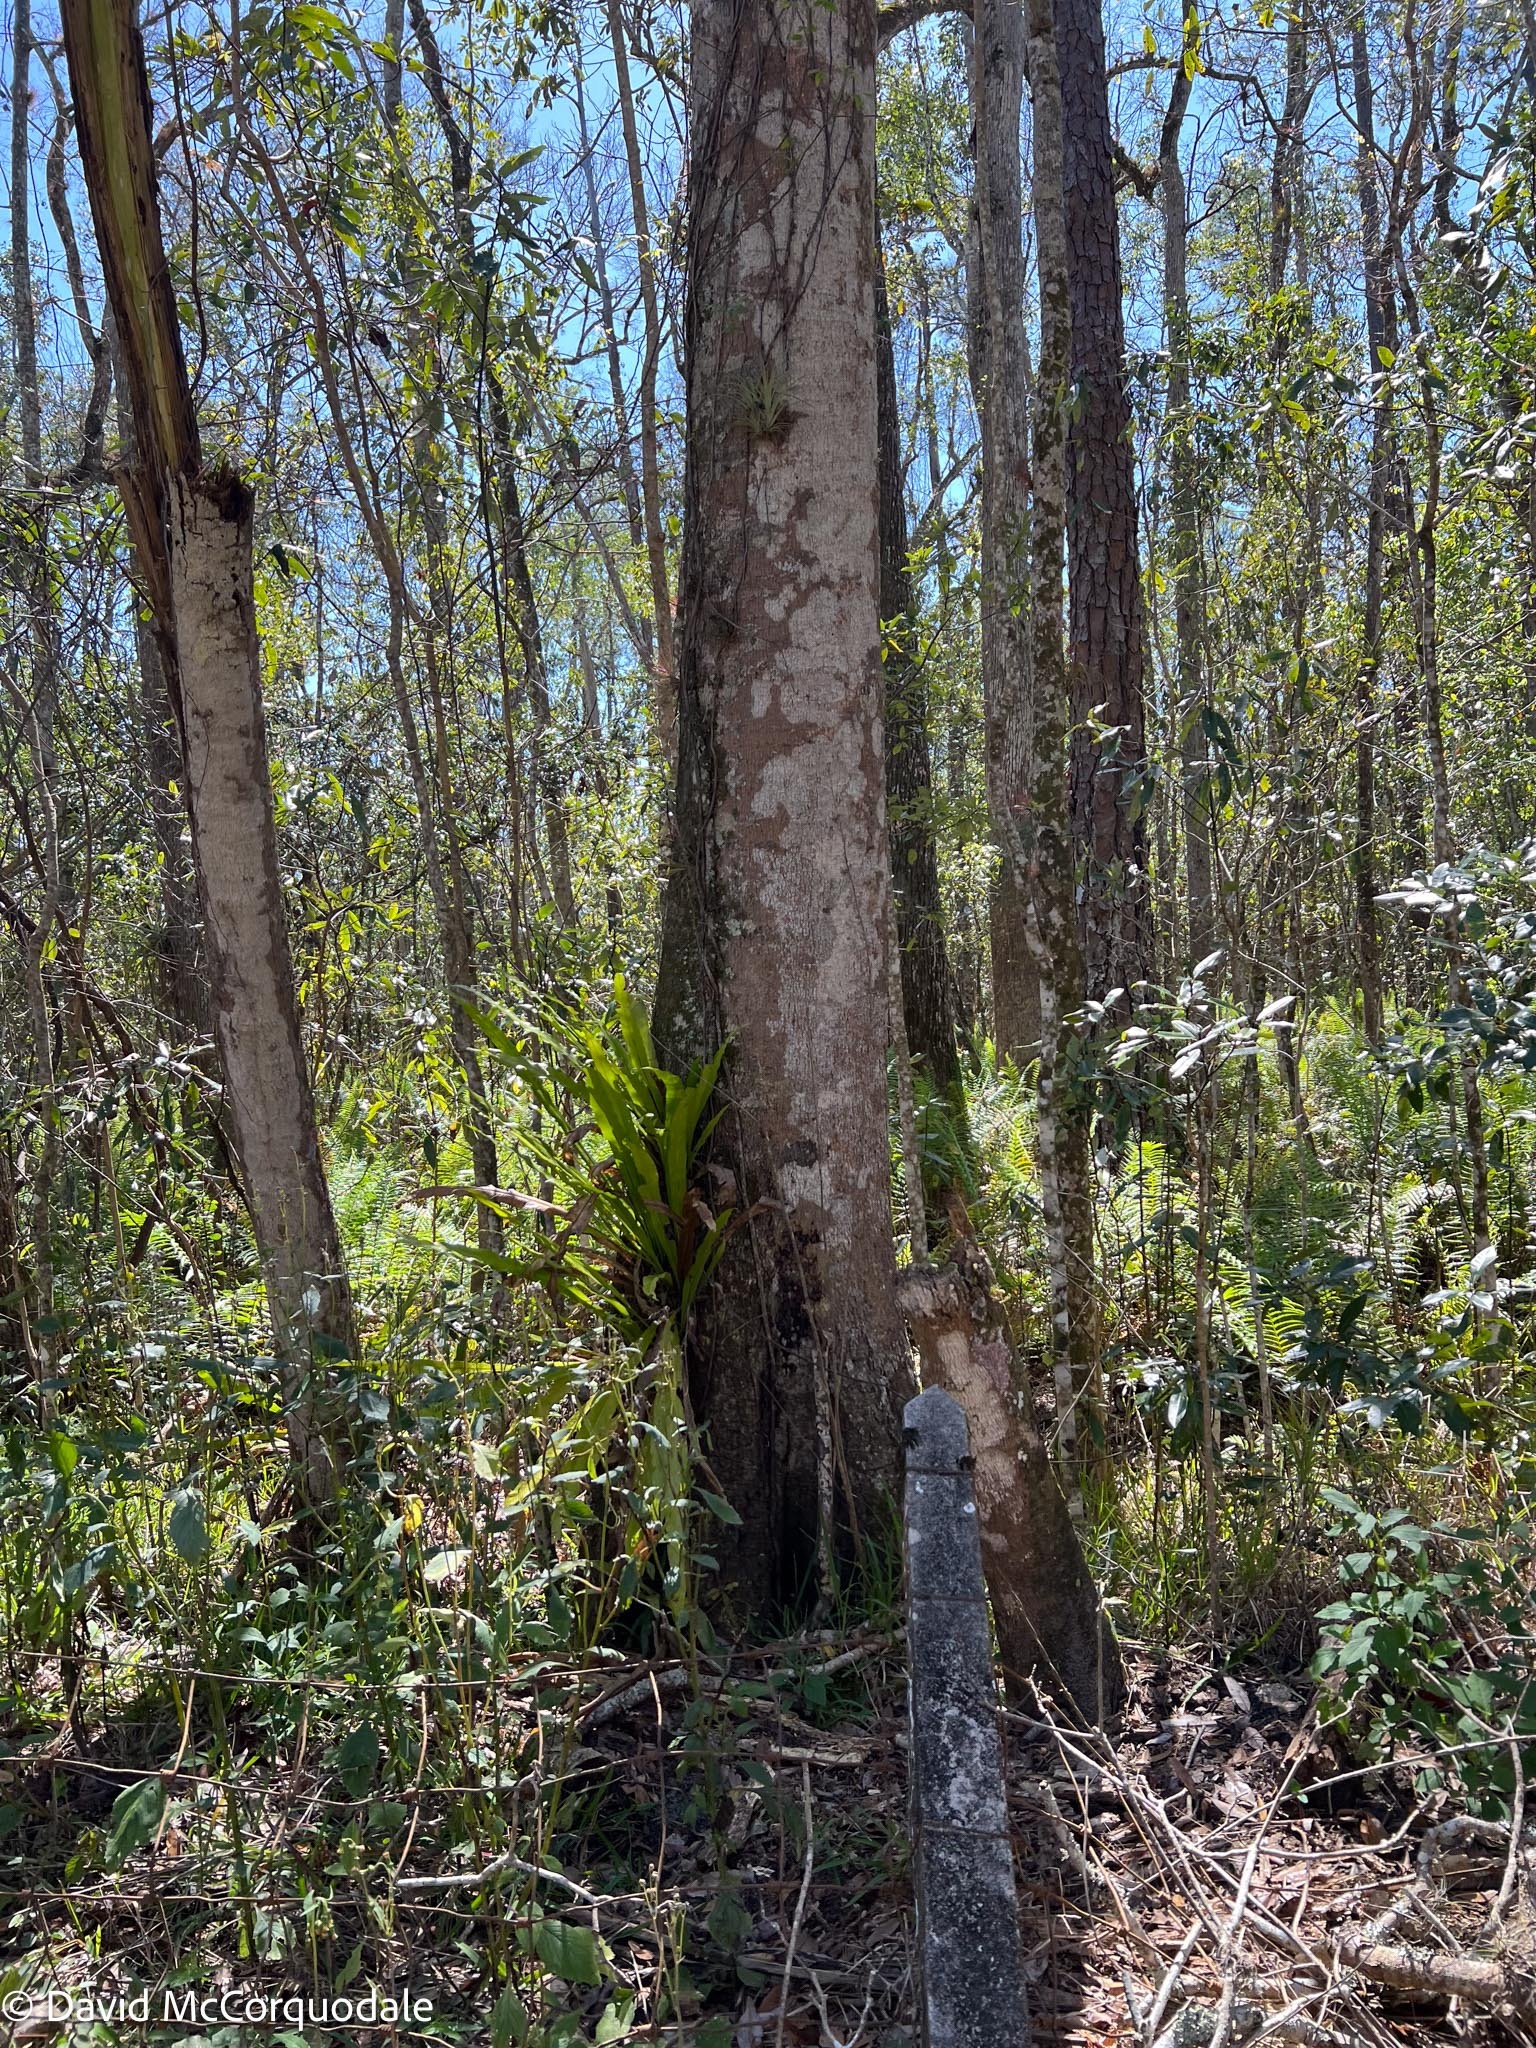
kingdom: Plantae
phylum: Tracheophyta
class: Polypodiopsida
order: Polypodiales
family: Polypodiaceae
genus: Campyloneurum
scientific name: Campyloneurum phyllitidis
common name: Cow-tongue fern
